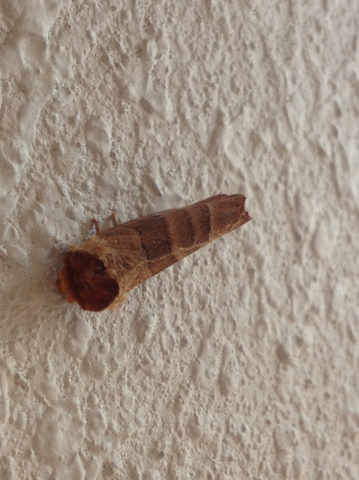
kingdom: Animalia
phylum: Arthropoda
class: Insecta
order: Lepidoptera
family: Notodontidae
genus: Datana
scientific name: Datana
